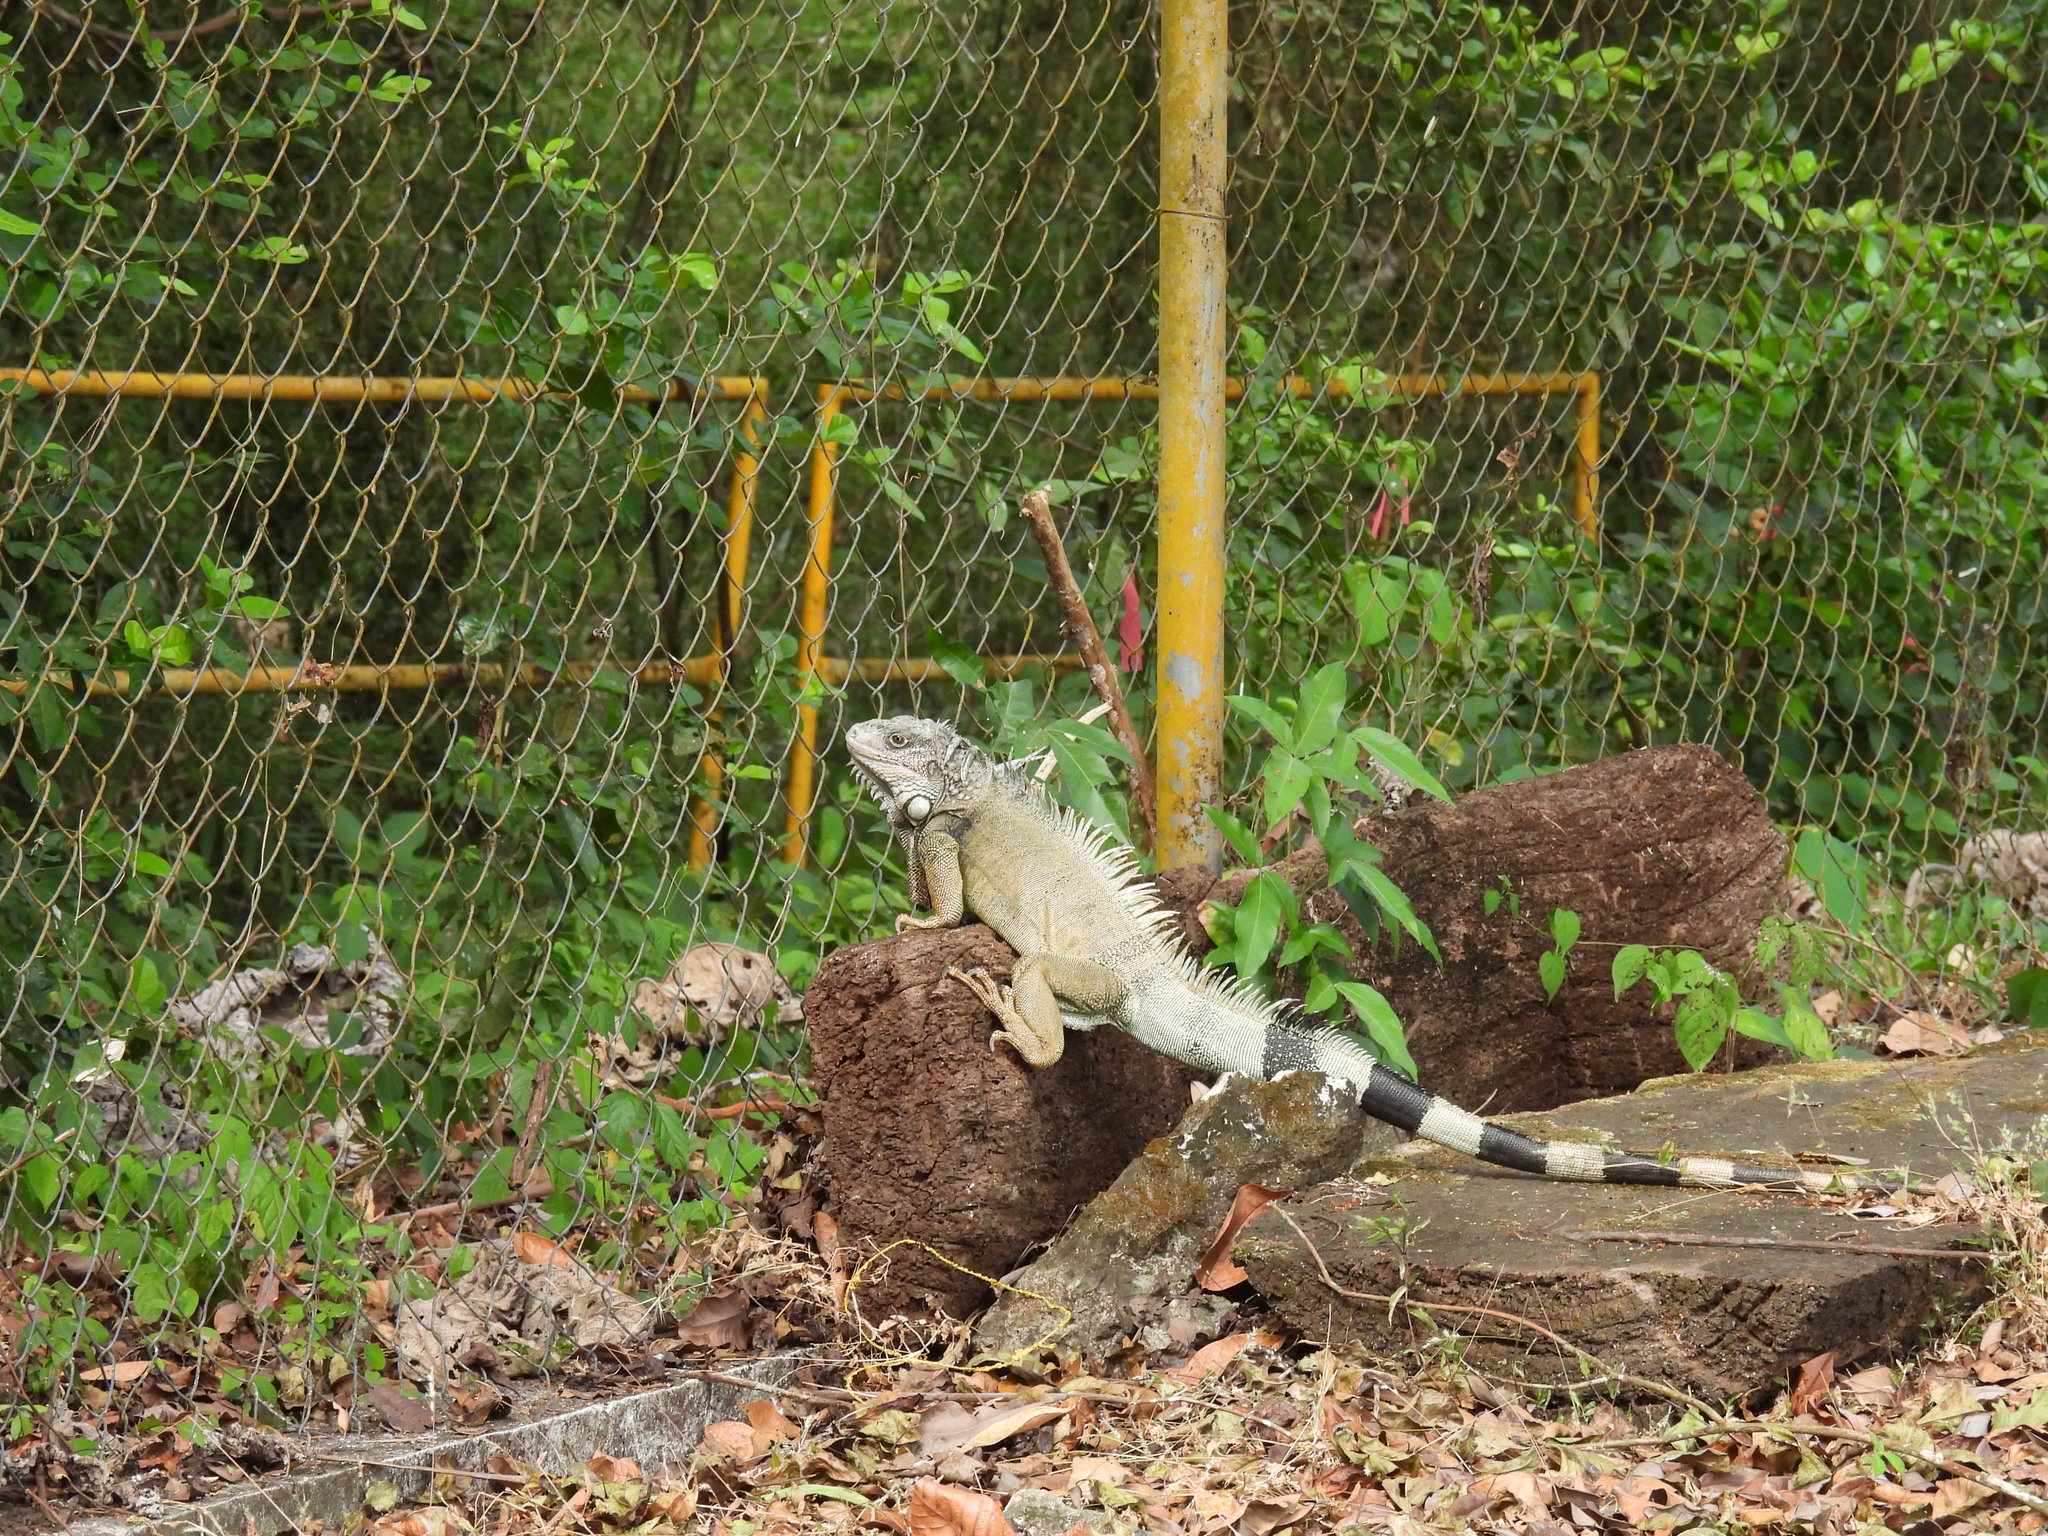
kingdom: Animalia
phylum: Chordata
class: Squamata
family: Iguanidae
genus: Iguana
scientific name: Iguana iguana
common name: Green iguana
